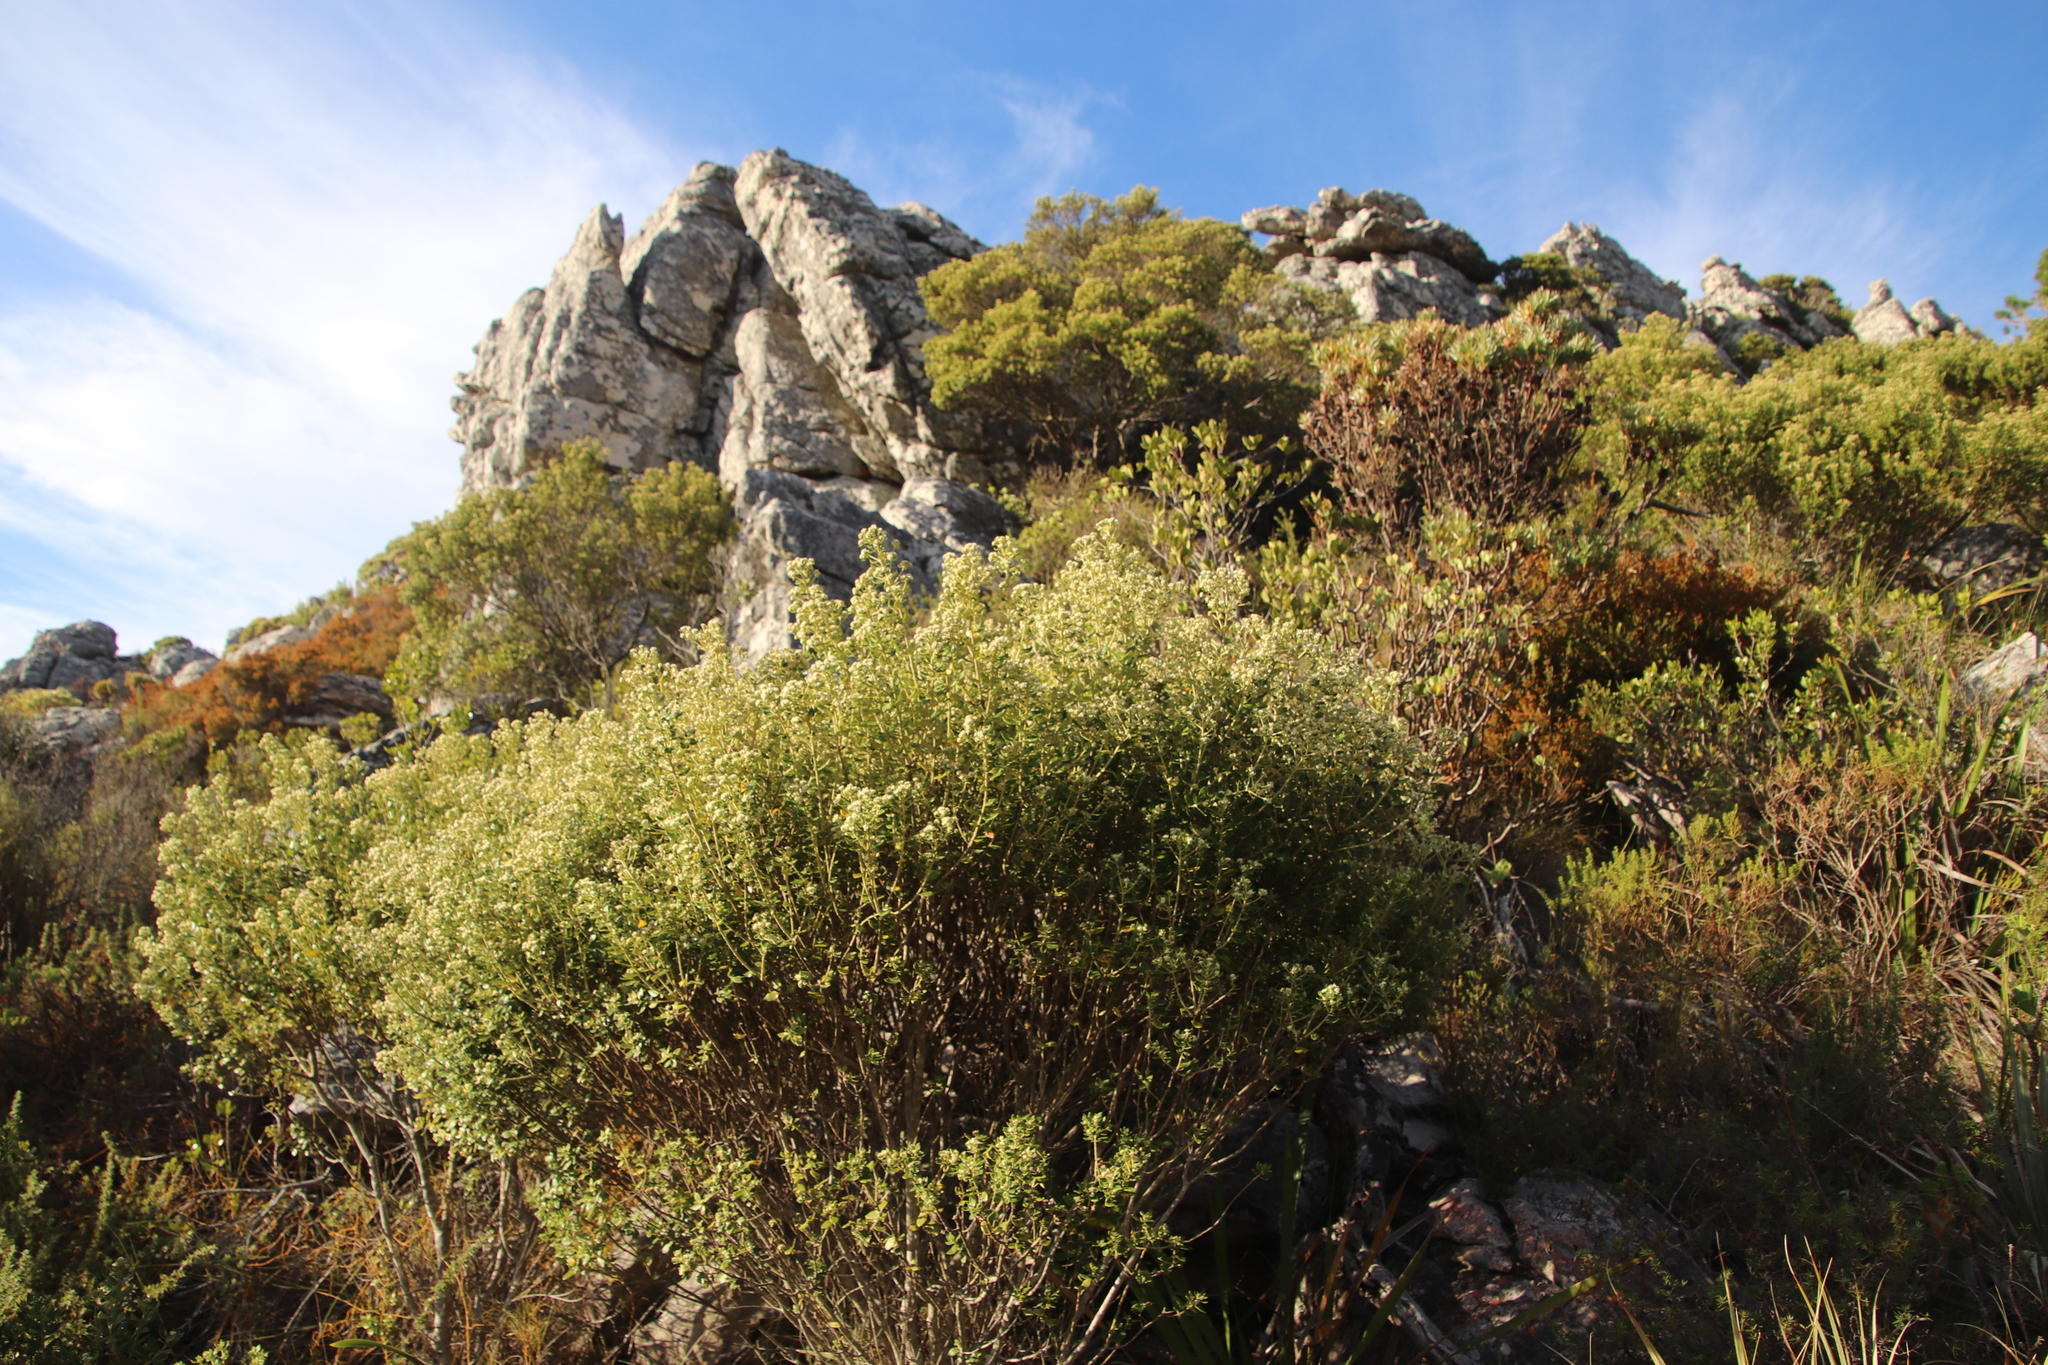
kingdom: Plantae
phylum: Tracheophyta
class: Magnoliopsida
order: Rosales
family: Rhamnaceae
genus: Phylica
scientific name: Phylica buxifolia
